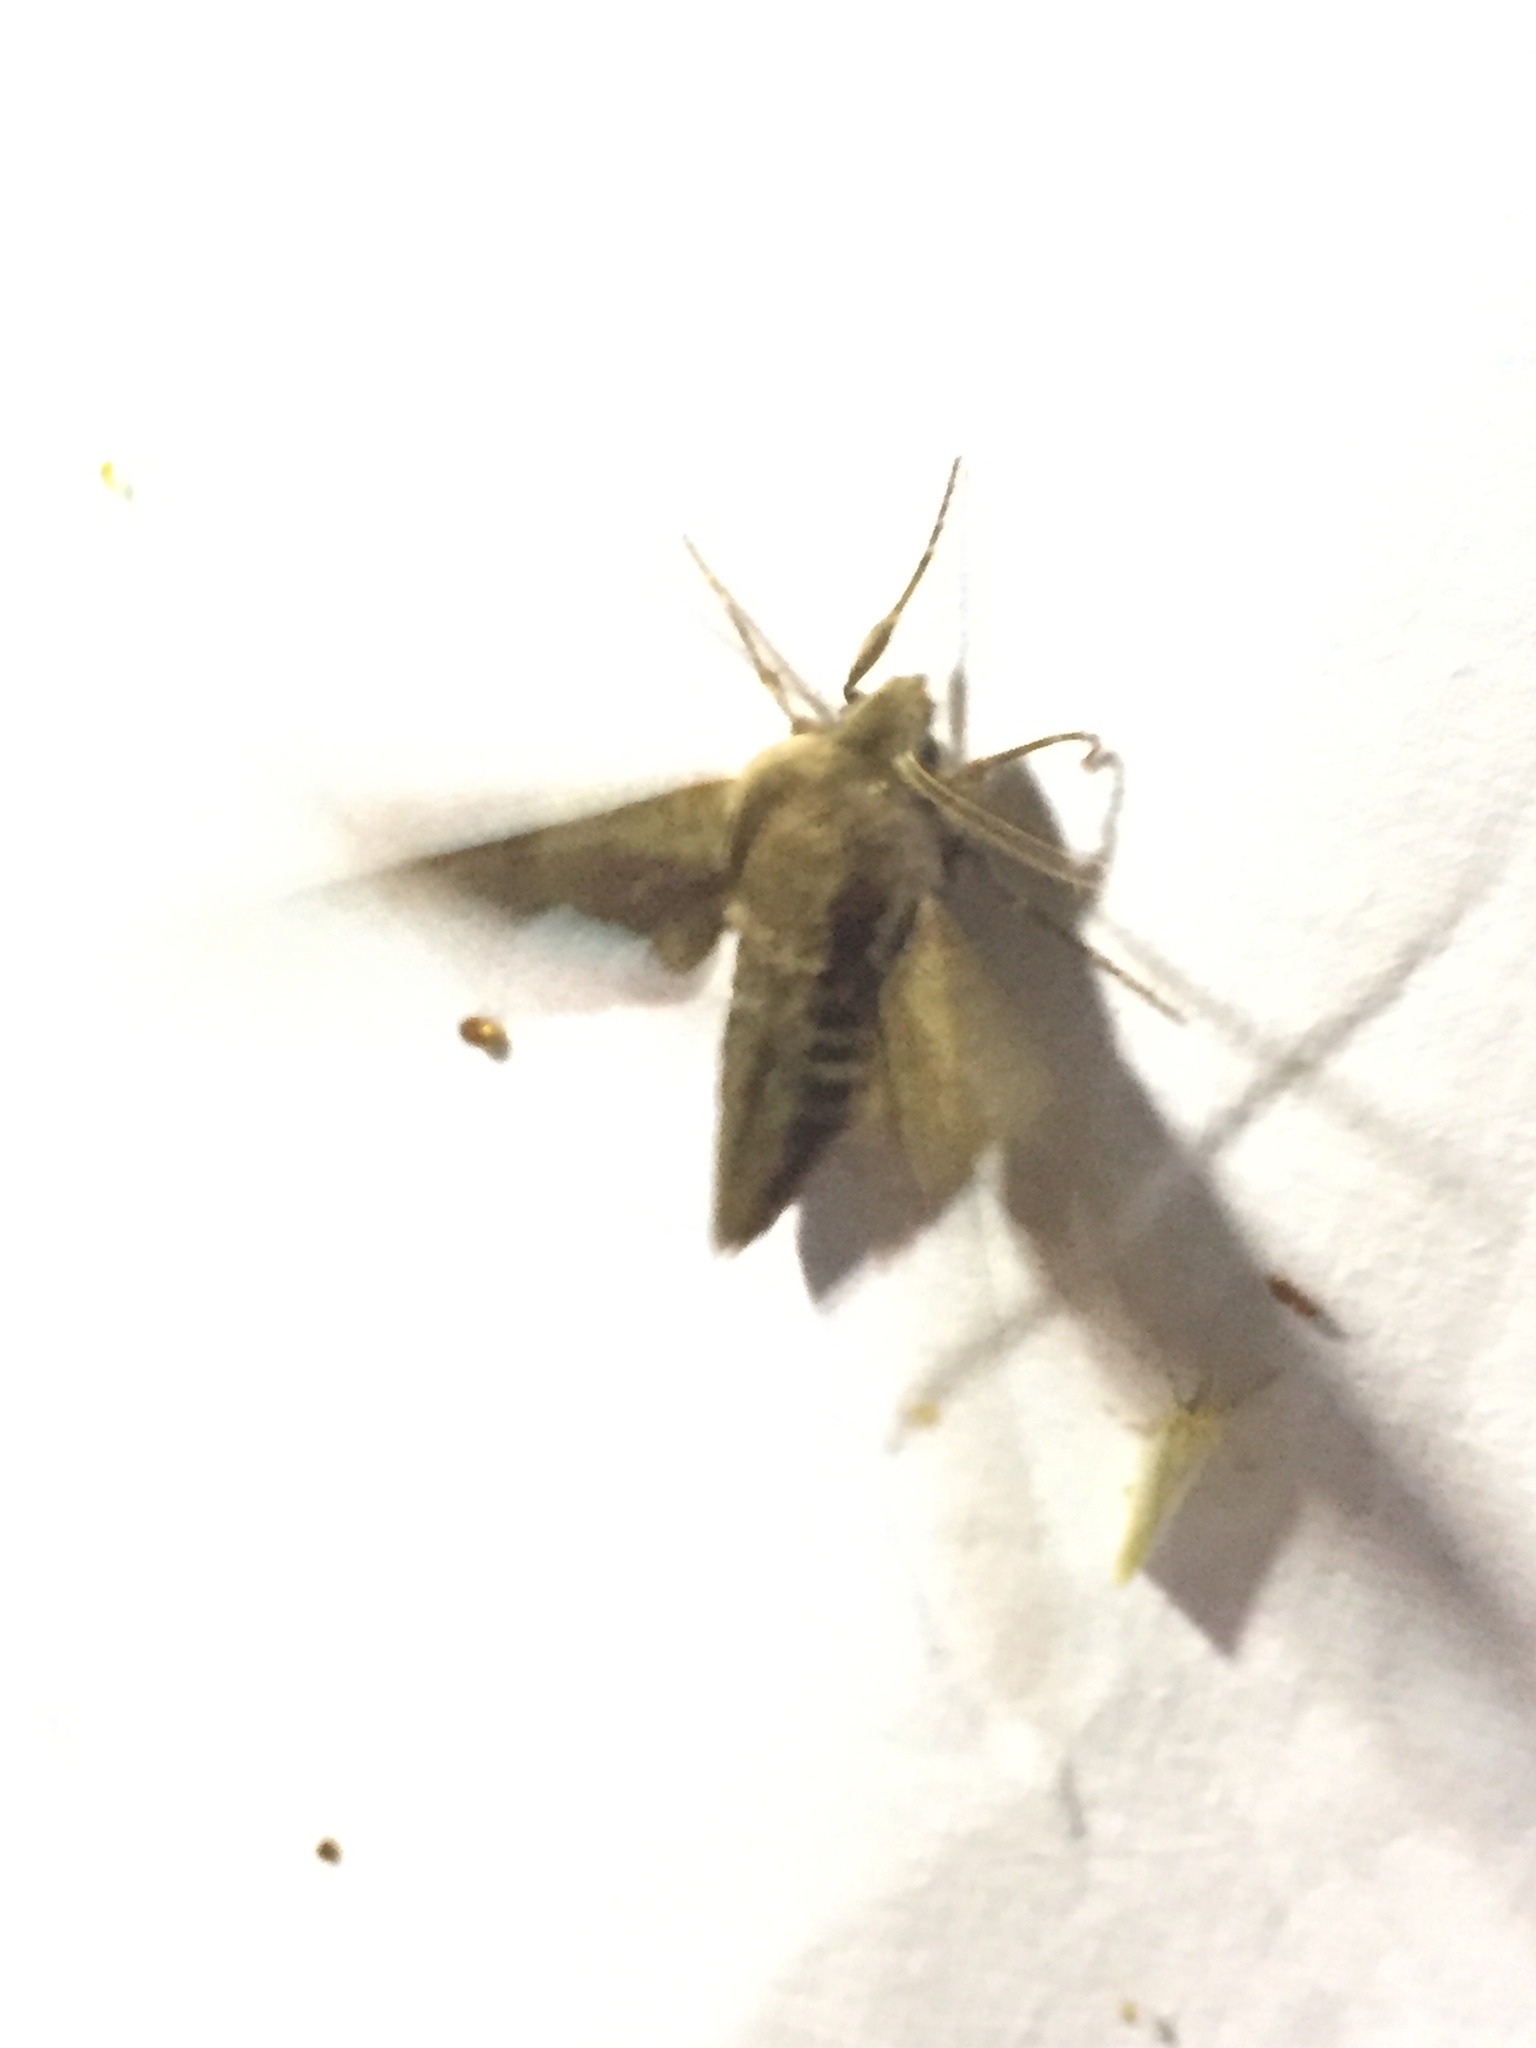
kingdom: Animalia
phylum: Arthropoda
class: Insecta
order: Lepidoptera
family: Sphingidae
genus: Sphinx
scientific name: Sphinx pinastri
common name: Pine hawk-moth
